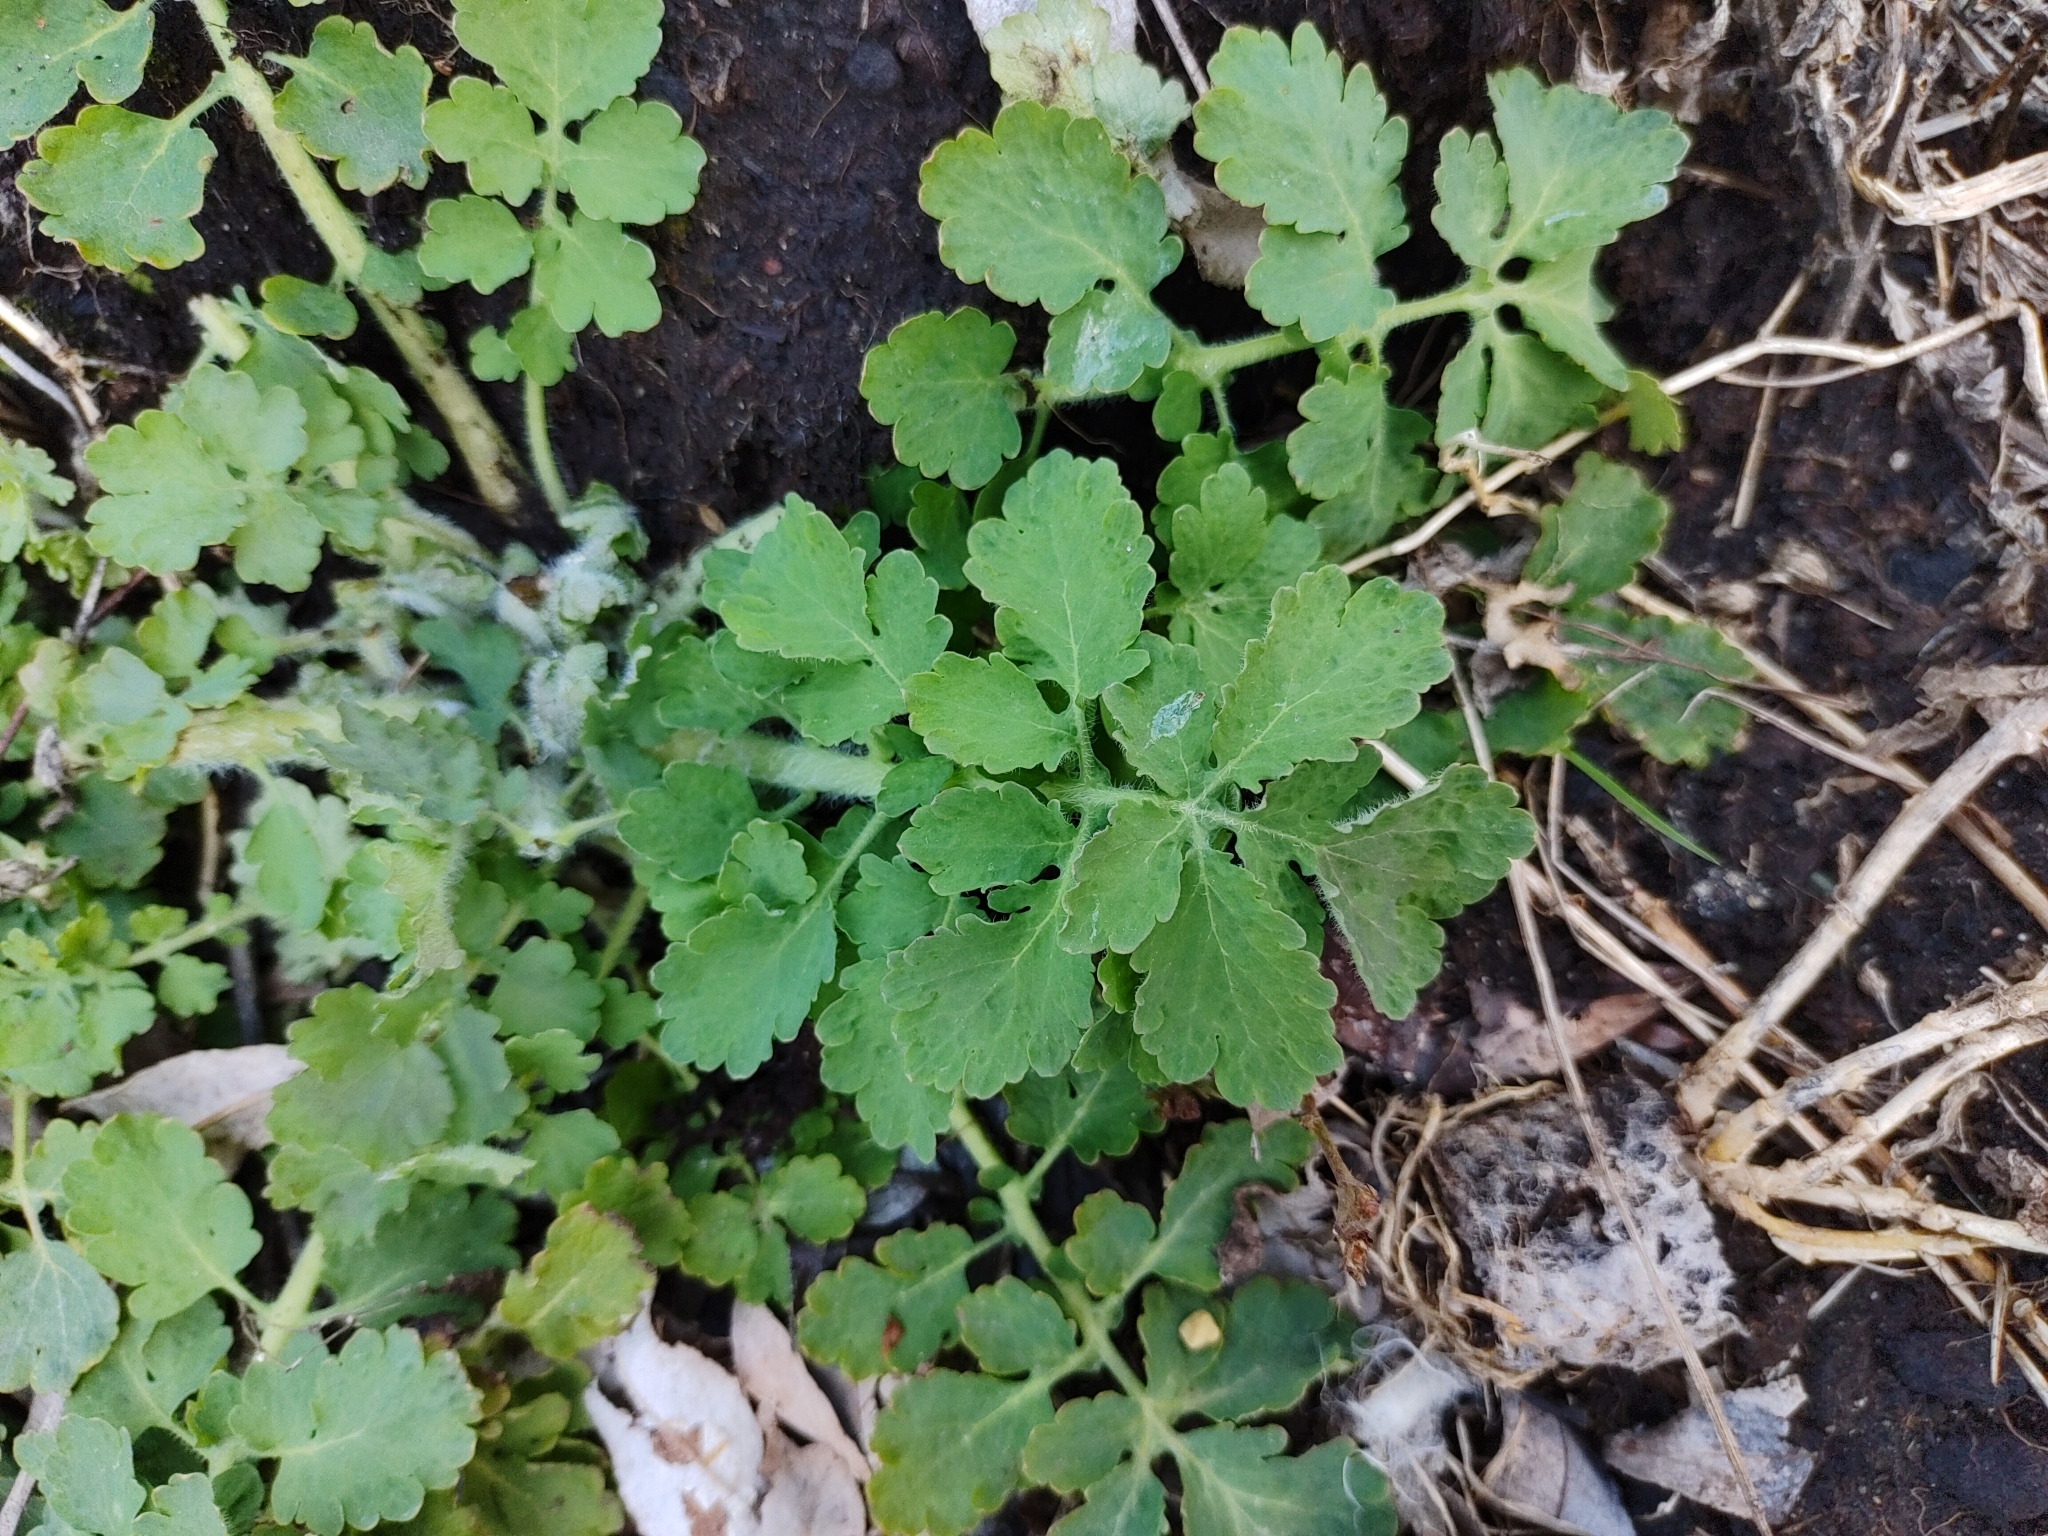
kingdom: Plantae
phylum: Tracheophyta
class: Magnoliopsida
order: Ranunculales
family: Papaveraceae
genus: Chelidonium
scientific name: Chelidonium majus
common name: Greater celandine
